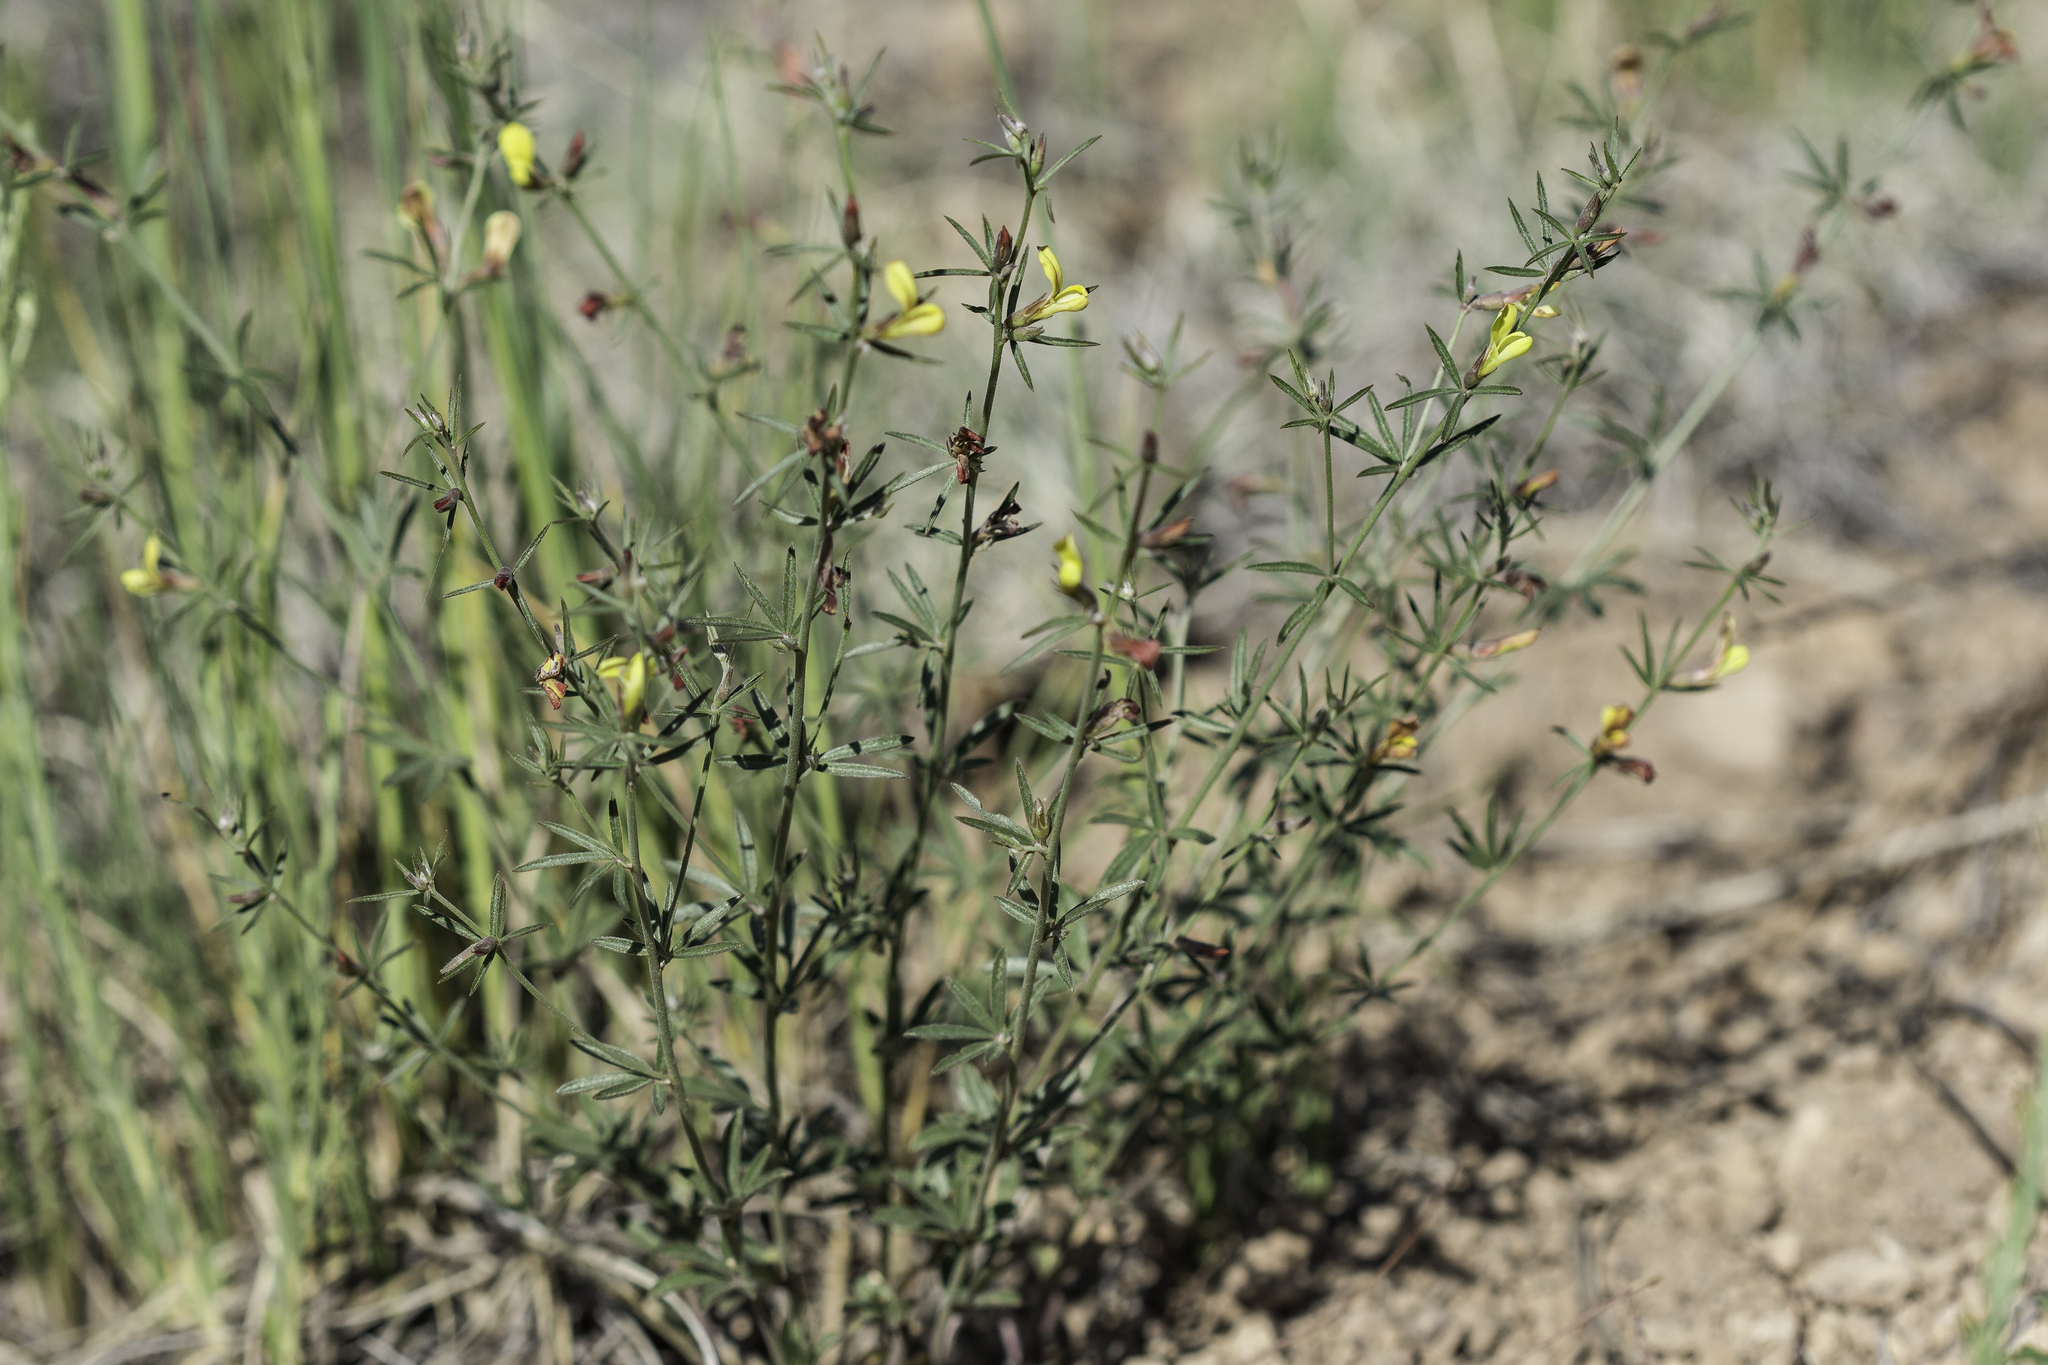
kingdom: Plantae
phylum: Tracheophyta
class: Magnoliopsida
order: Fabales
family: Fabaceae
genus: Acmispon
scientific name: Acmispon wrightii
